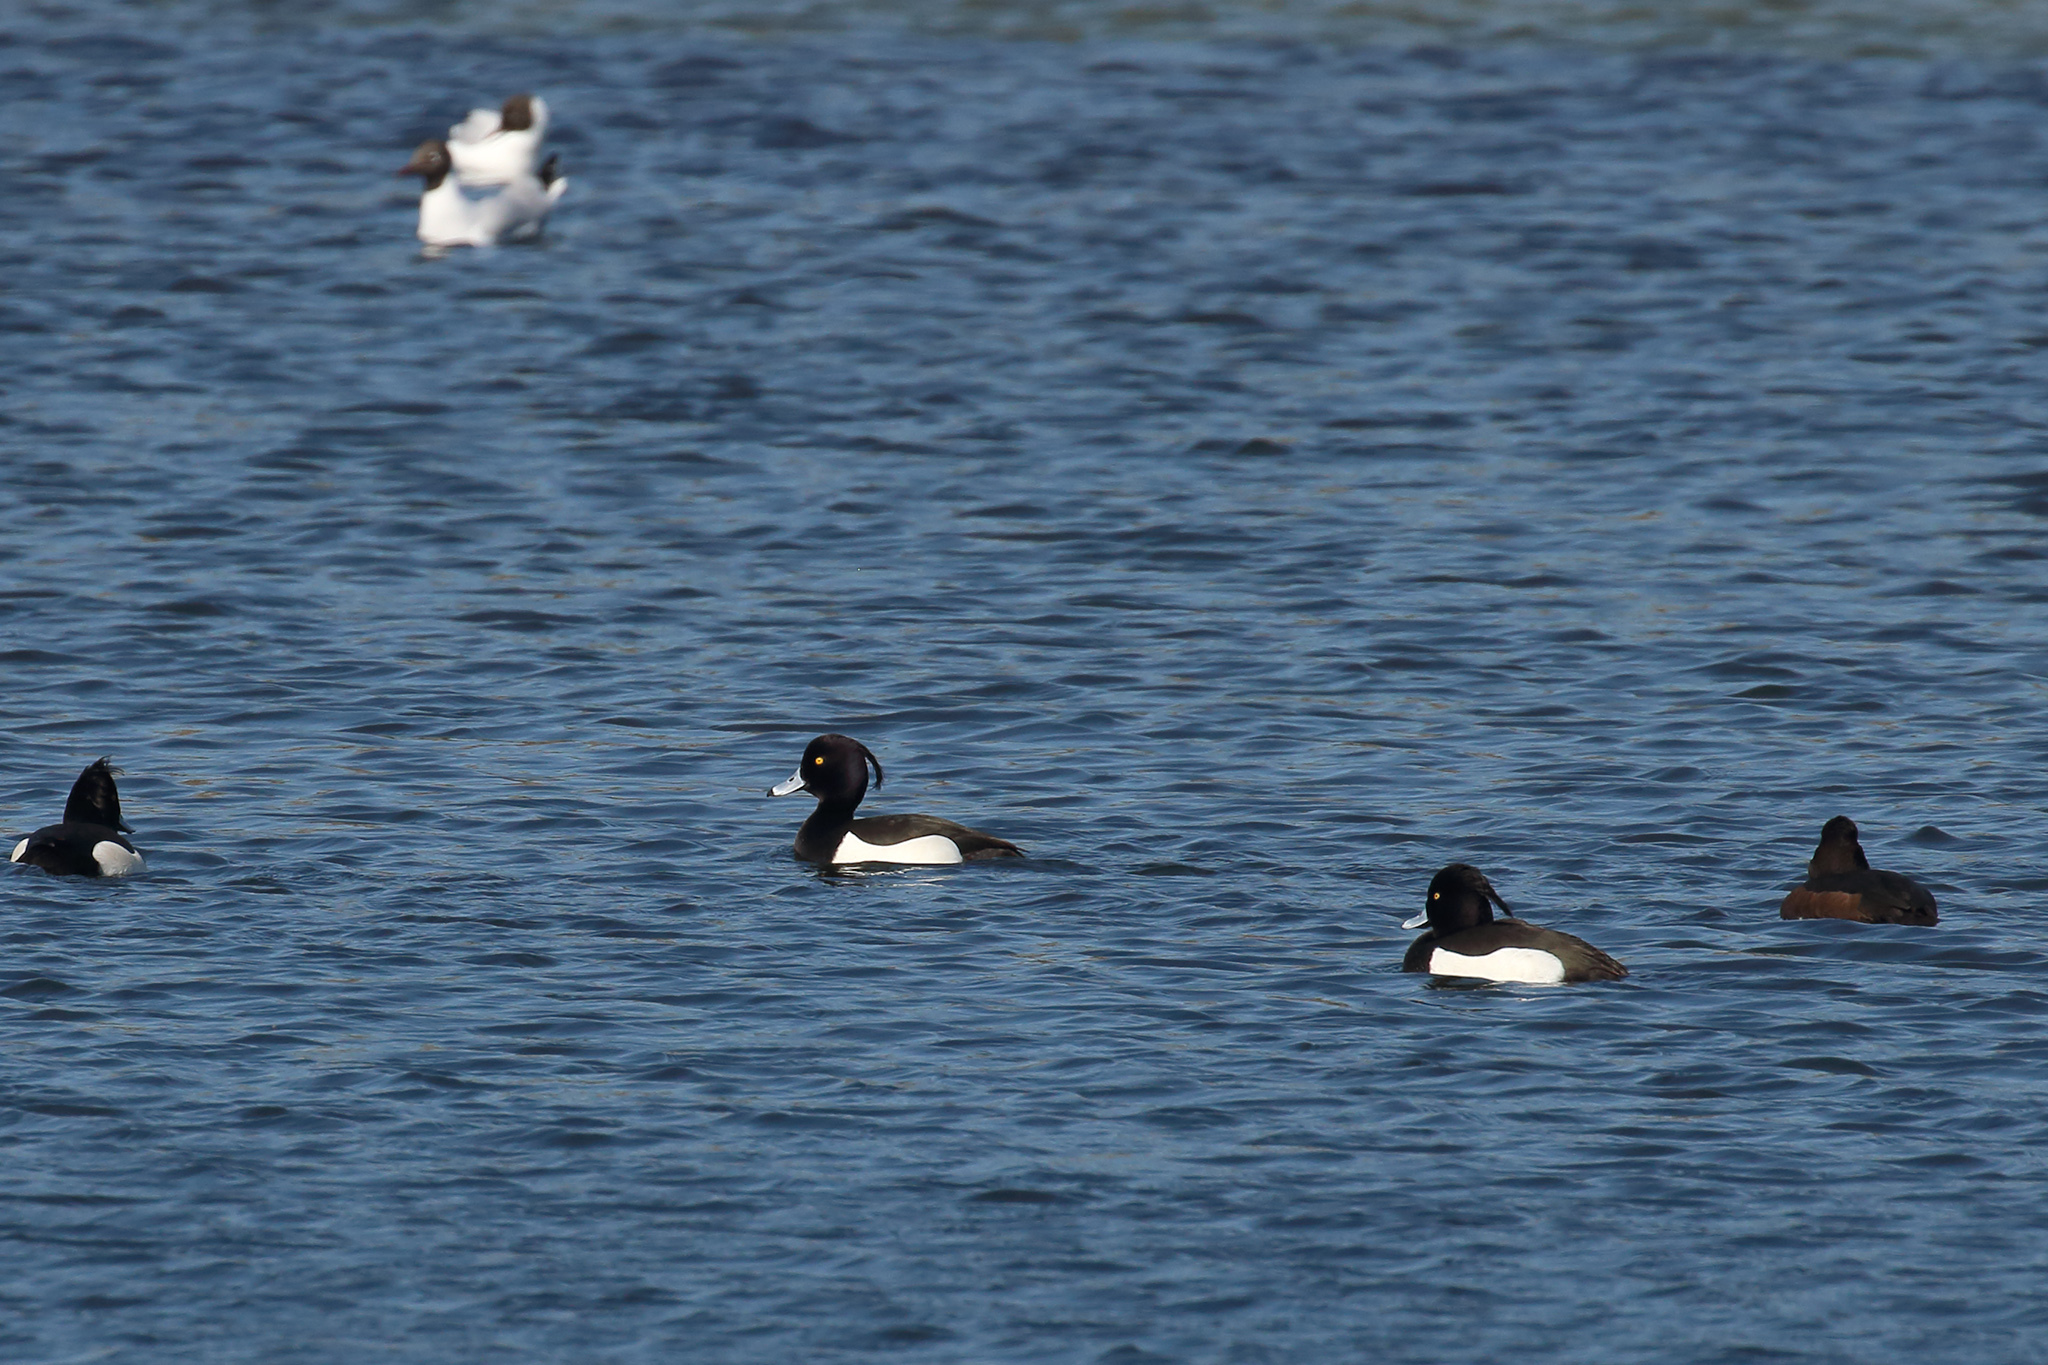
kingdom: Animalia
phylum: Chordata
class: Aves
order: Anseriformes
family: Anatidae
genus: Aythya
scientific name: Aythya fuligula
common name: Tufted duck
